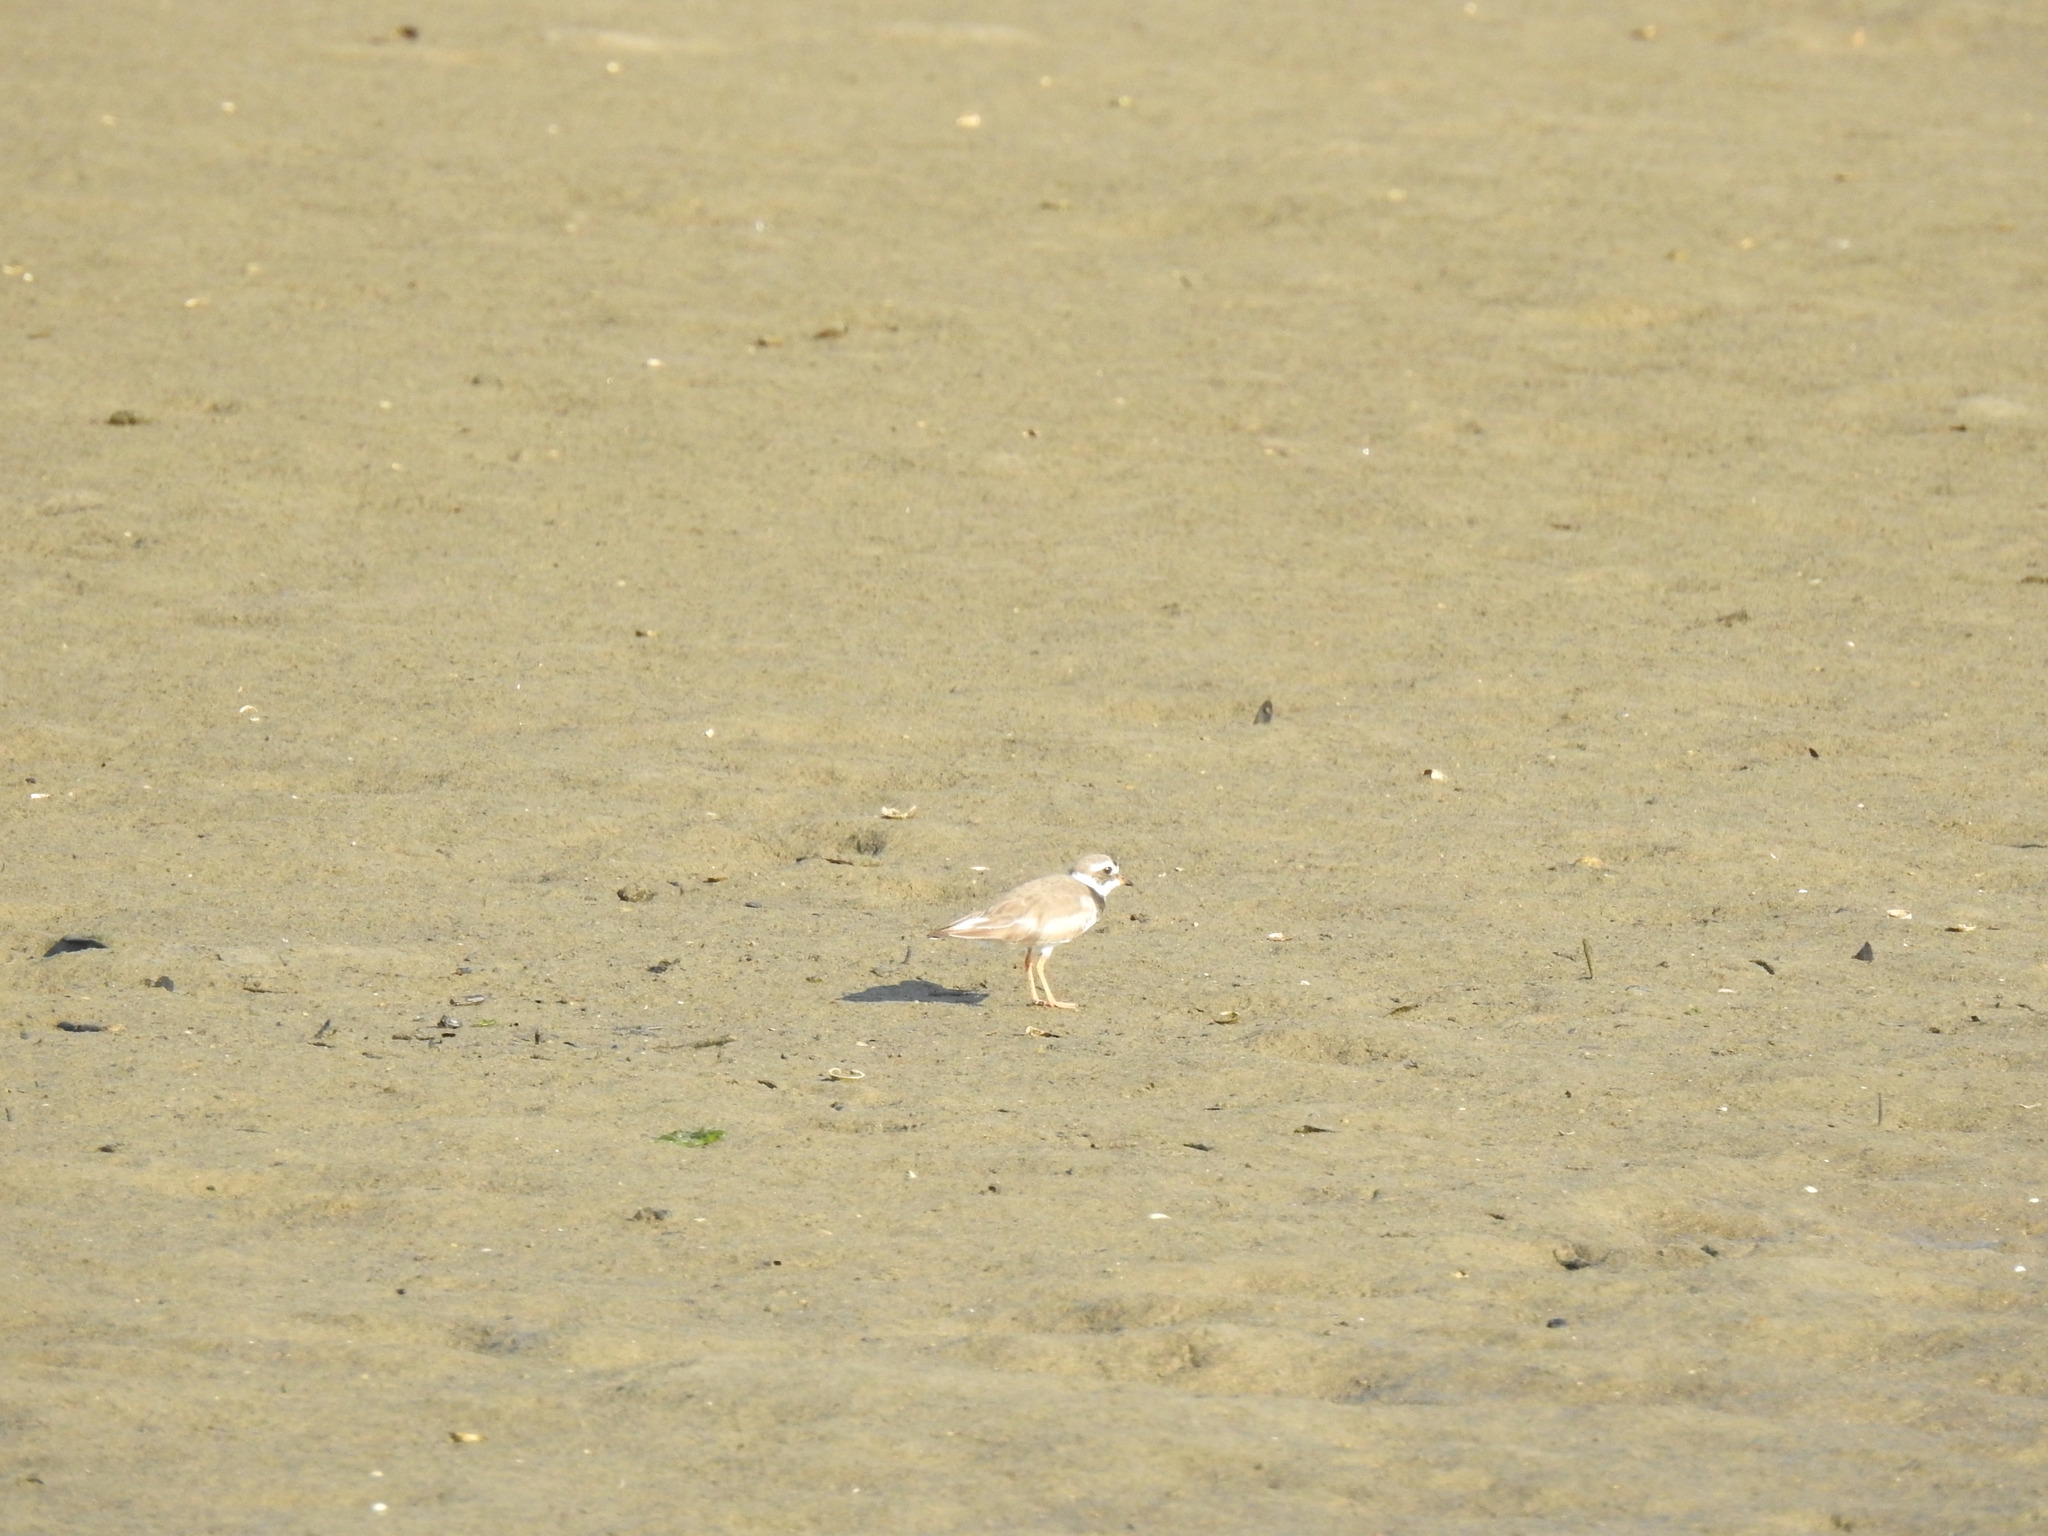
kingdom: Animalia
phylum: Chordata
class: Aves
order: Charadriiformes
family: Charadriidae
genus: Charadrius
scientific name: Charadrius hiaticula
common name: Common ringed plover
